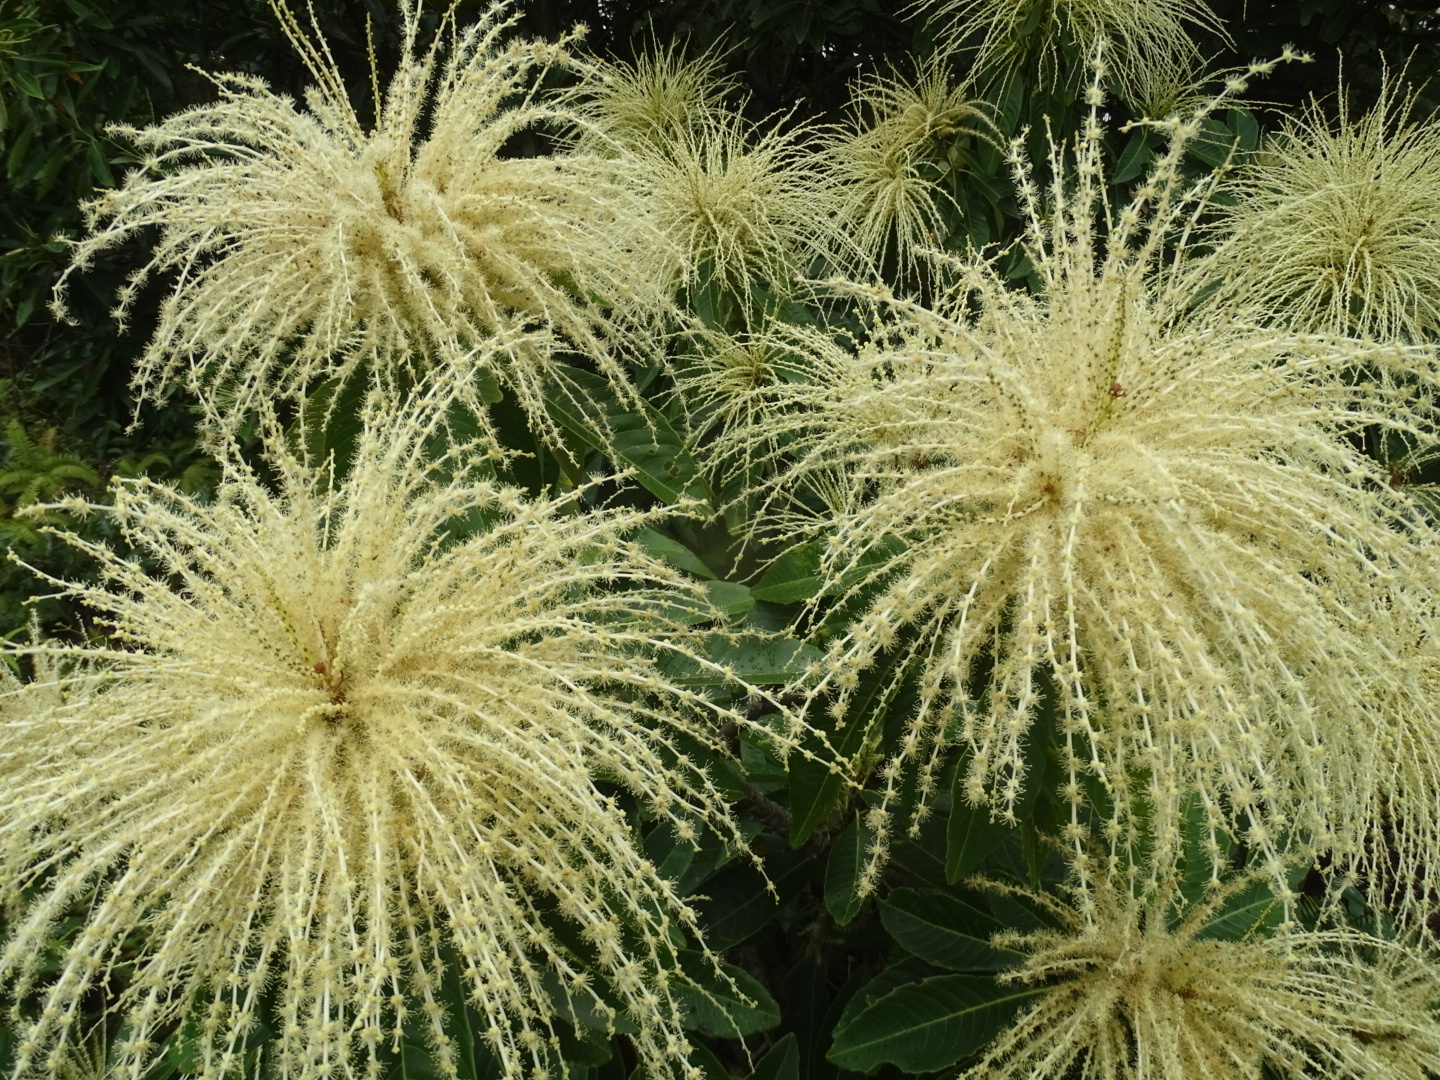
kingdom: Plantae
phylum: Tracheophyta
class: Magnoliopsida
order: Fagales
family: Fagaceae
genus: Castanopsis
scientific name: Castanopsis fissa
